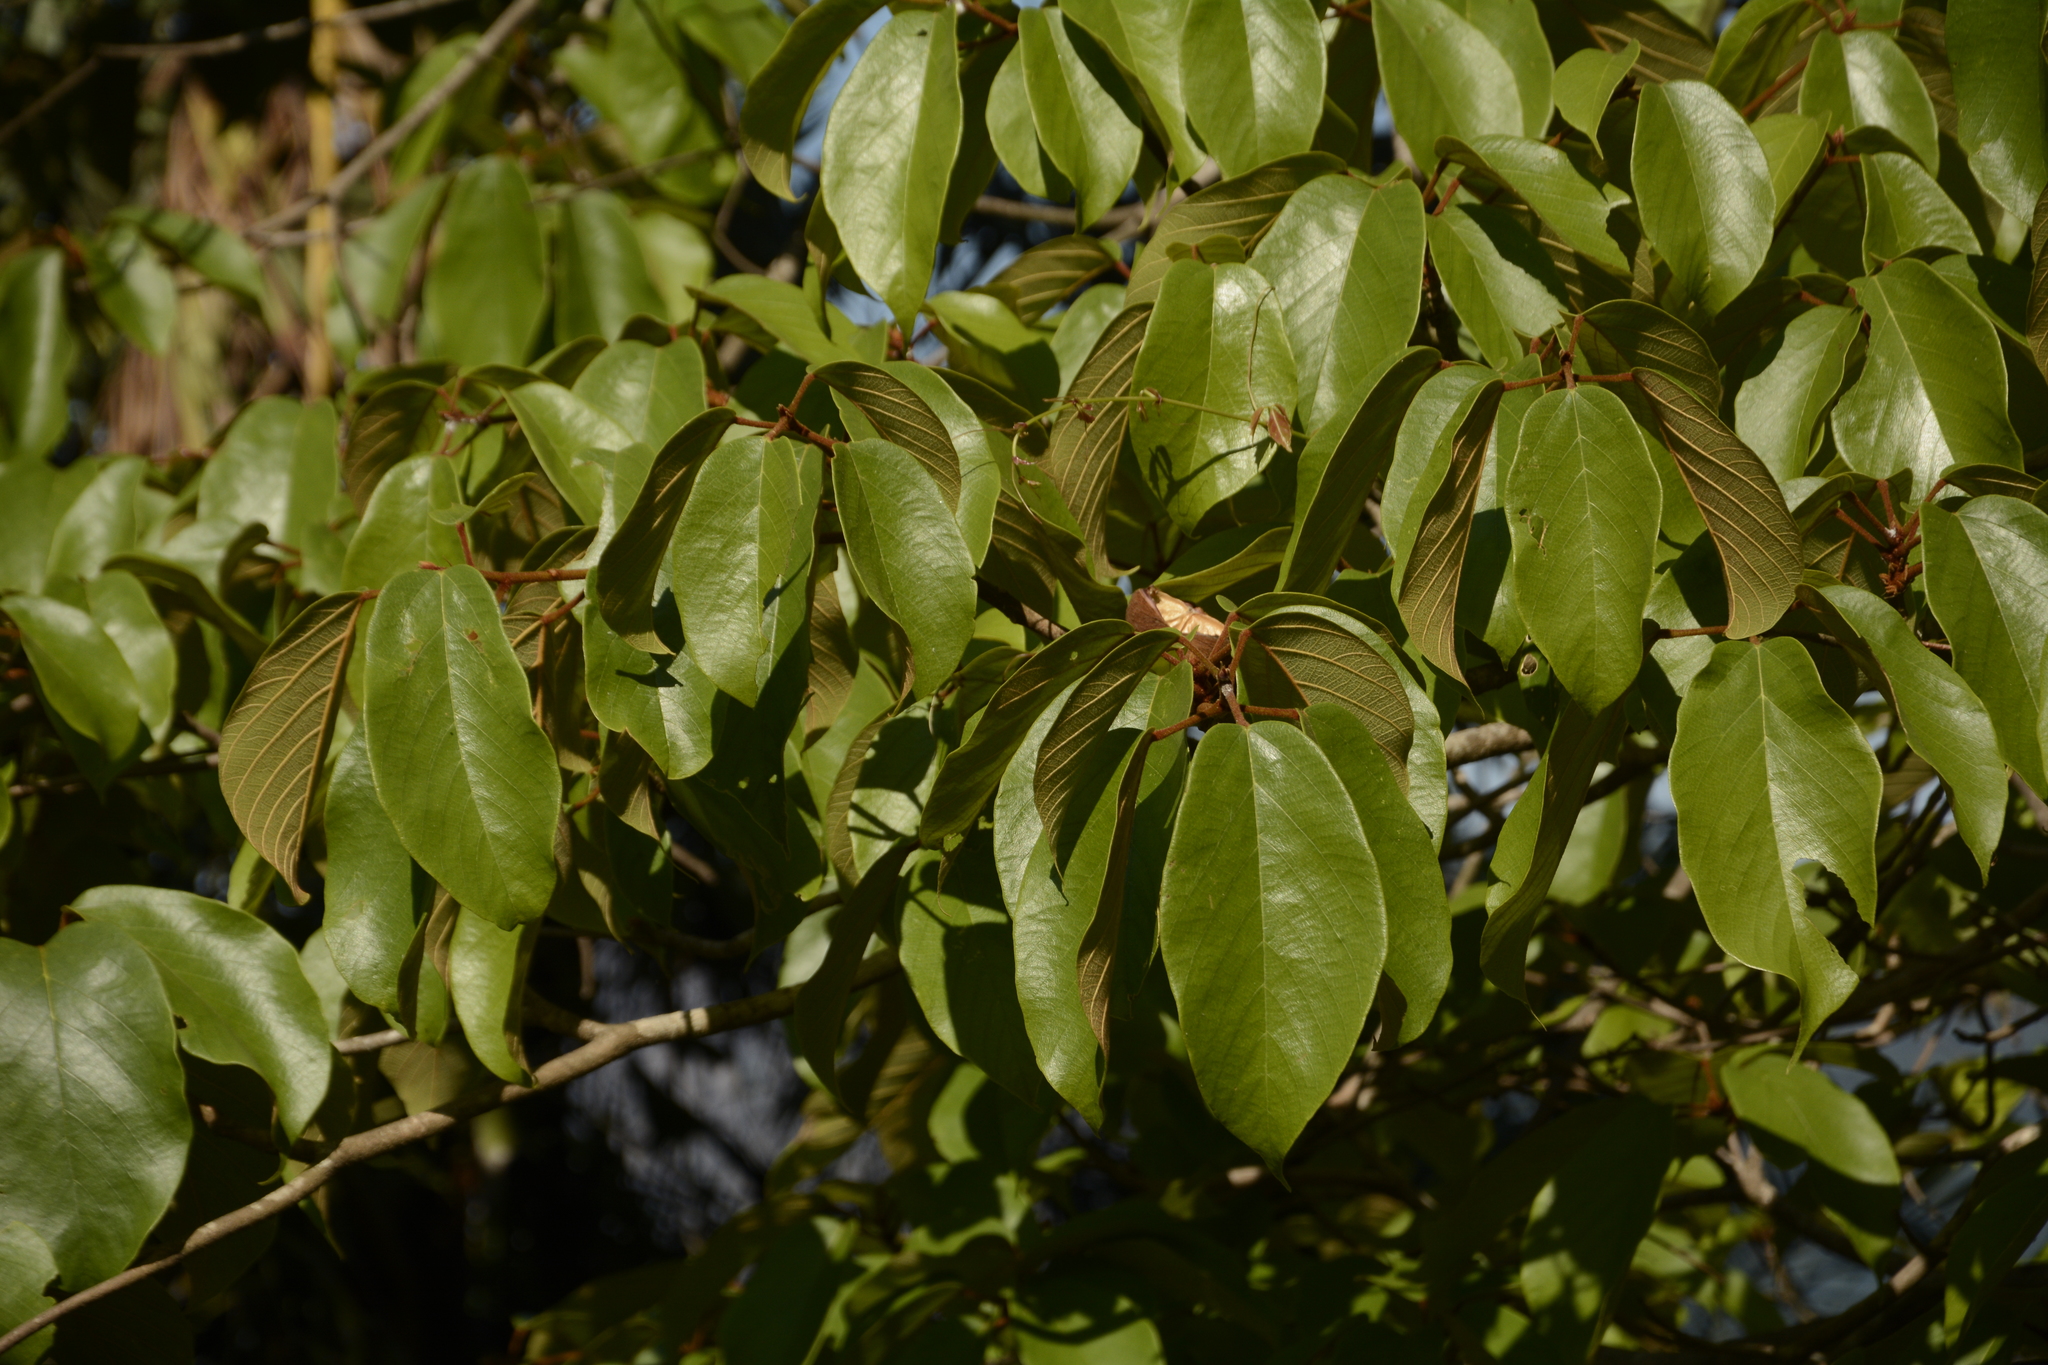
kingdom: Plantae
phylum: Tracheophyta
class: Magnoliopsida
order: Malvales
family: Malvaceae
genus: Sterculia
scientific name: Sterculia guttata
